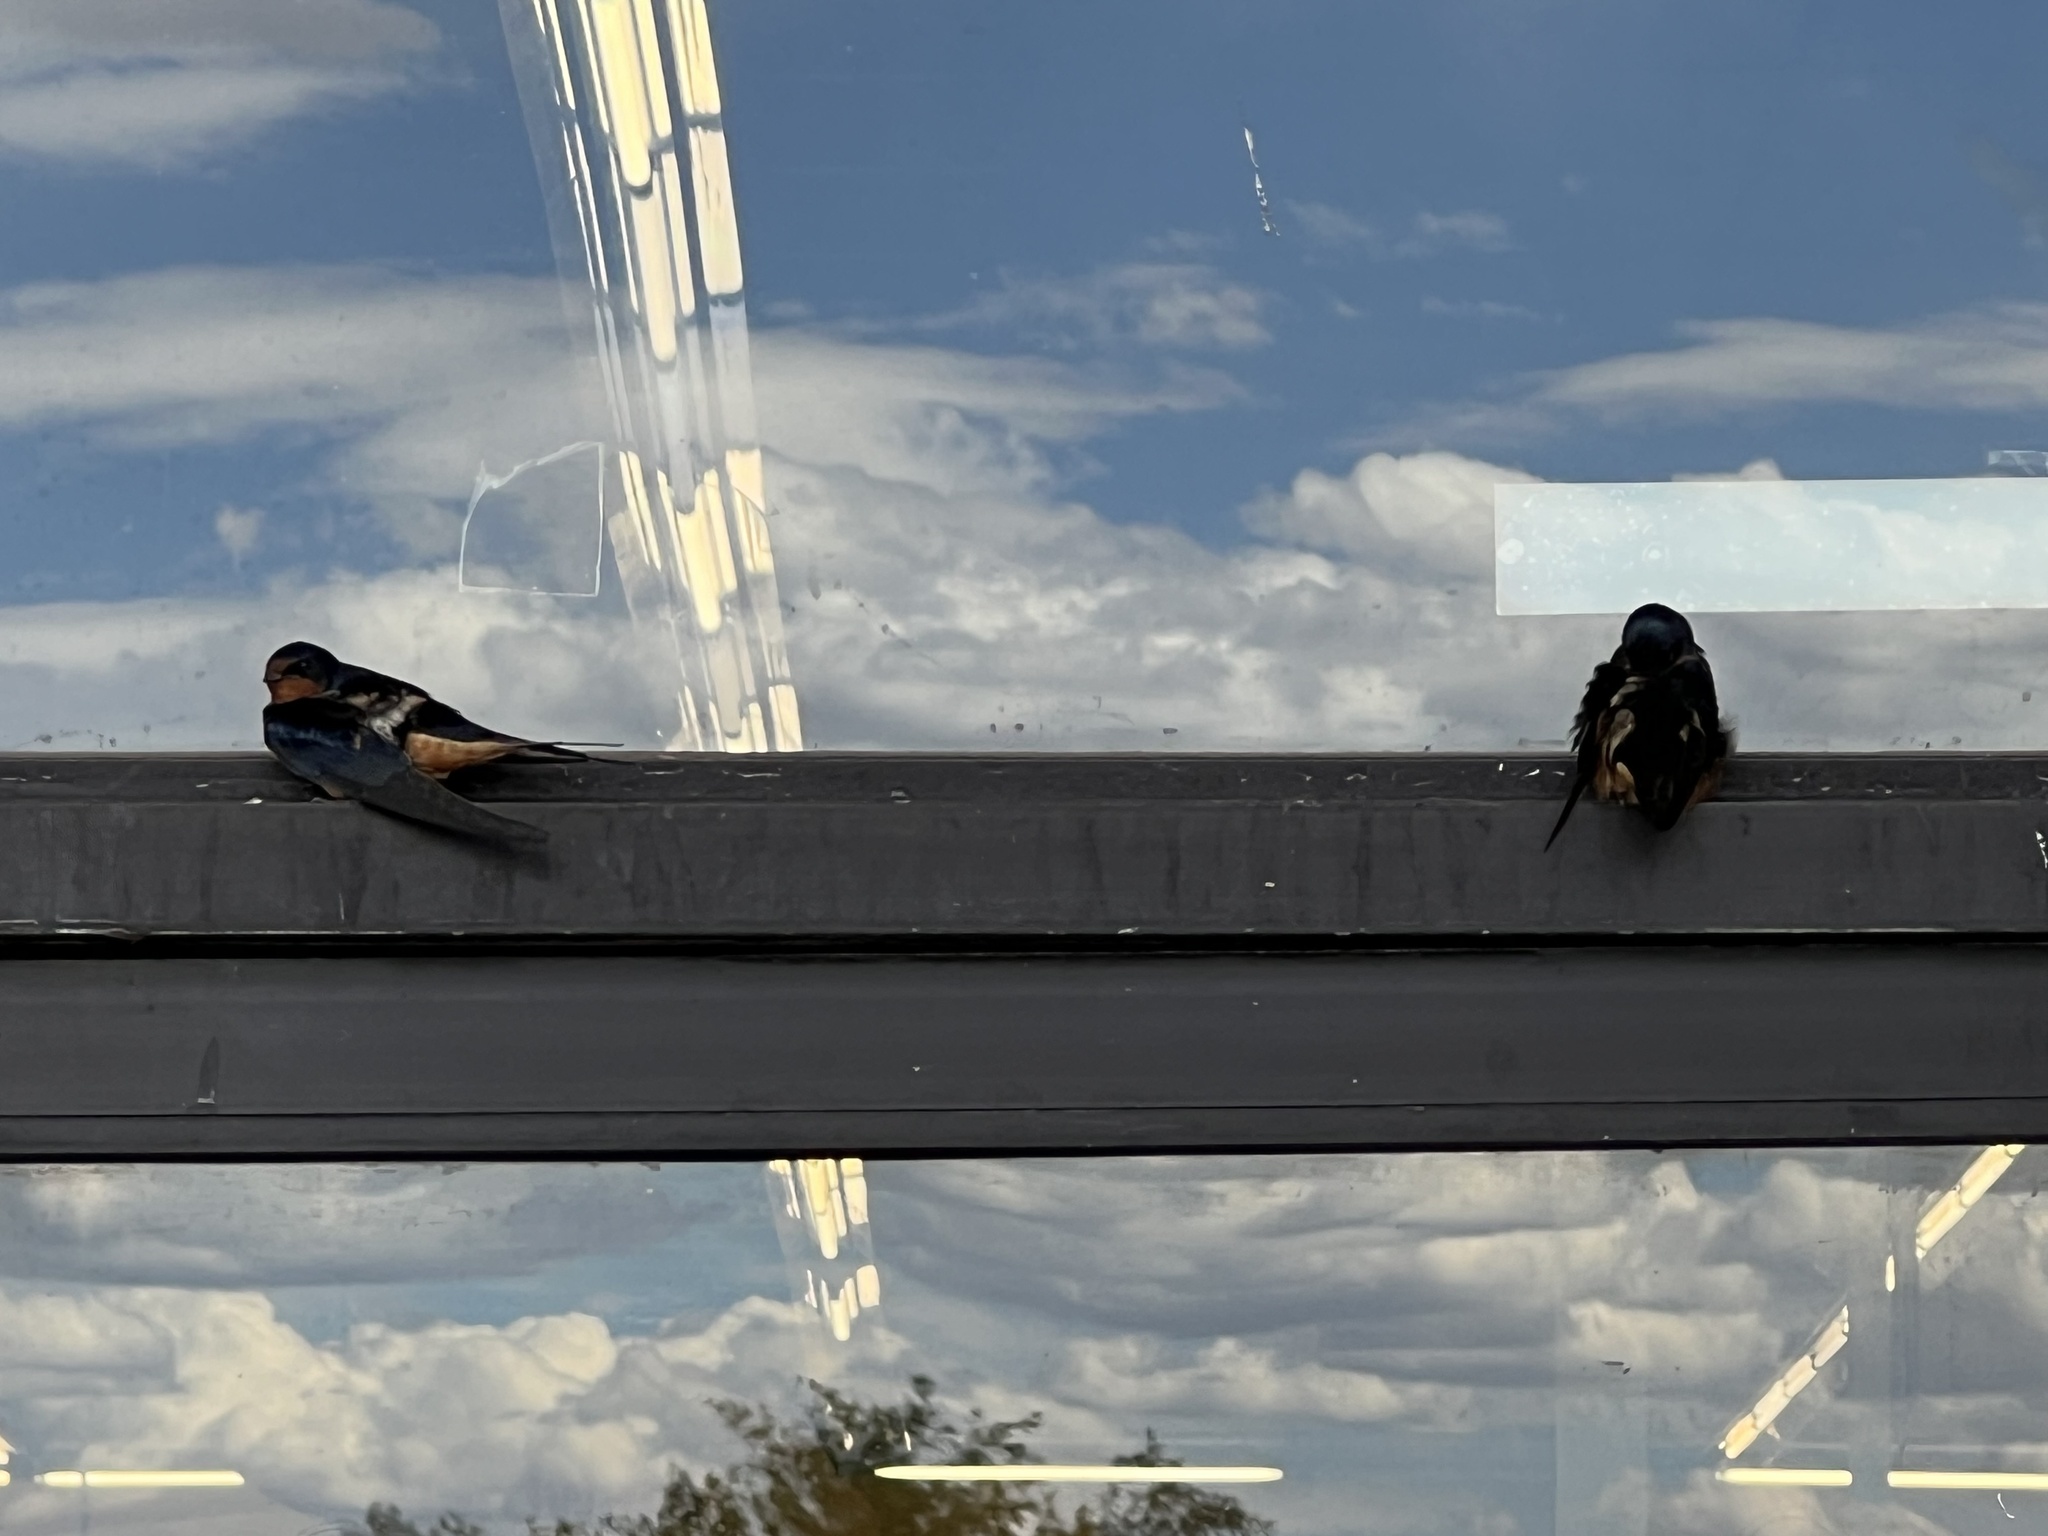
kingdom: Animalia
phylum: Chordata
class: Aves
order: Passeriformes
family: Hirundinidae
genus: Hirundo
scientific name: Hirundo rustica
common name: Barn swallow
